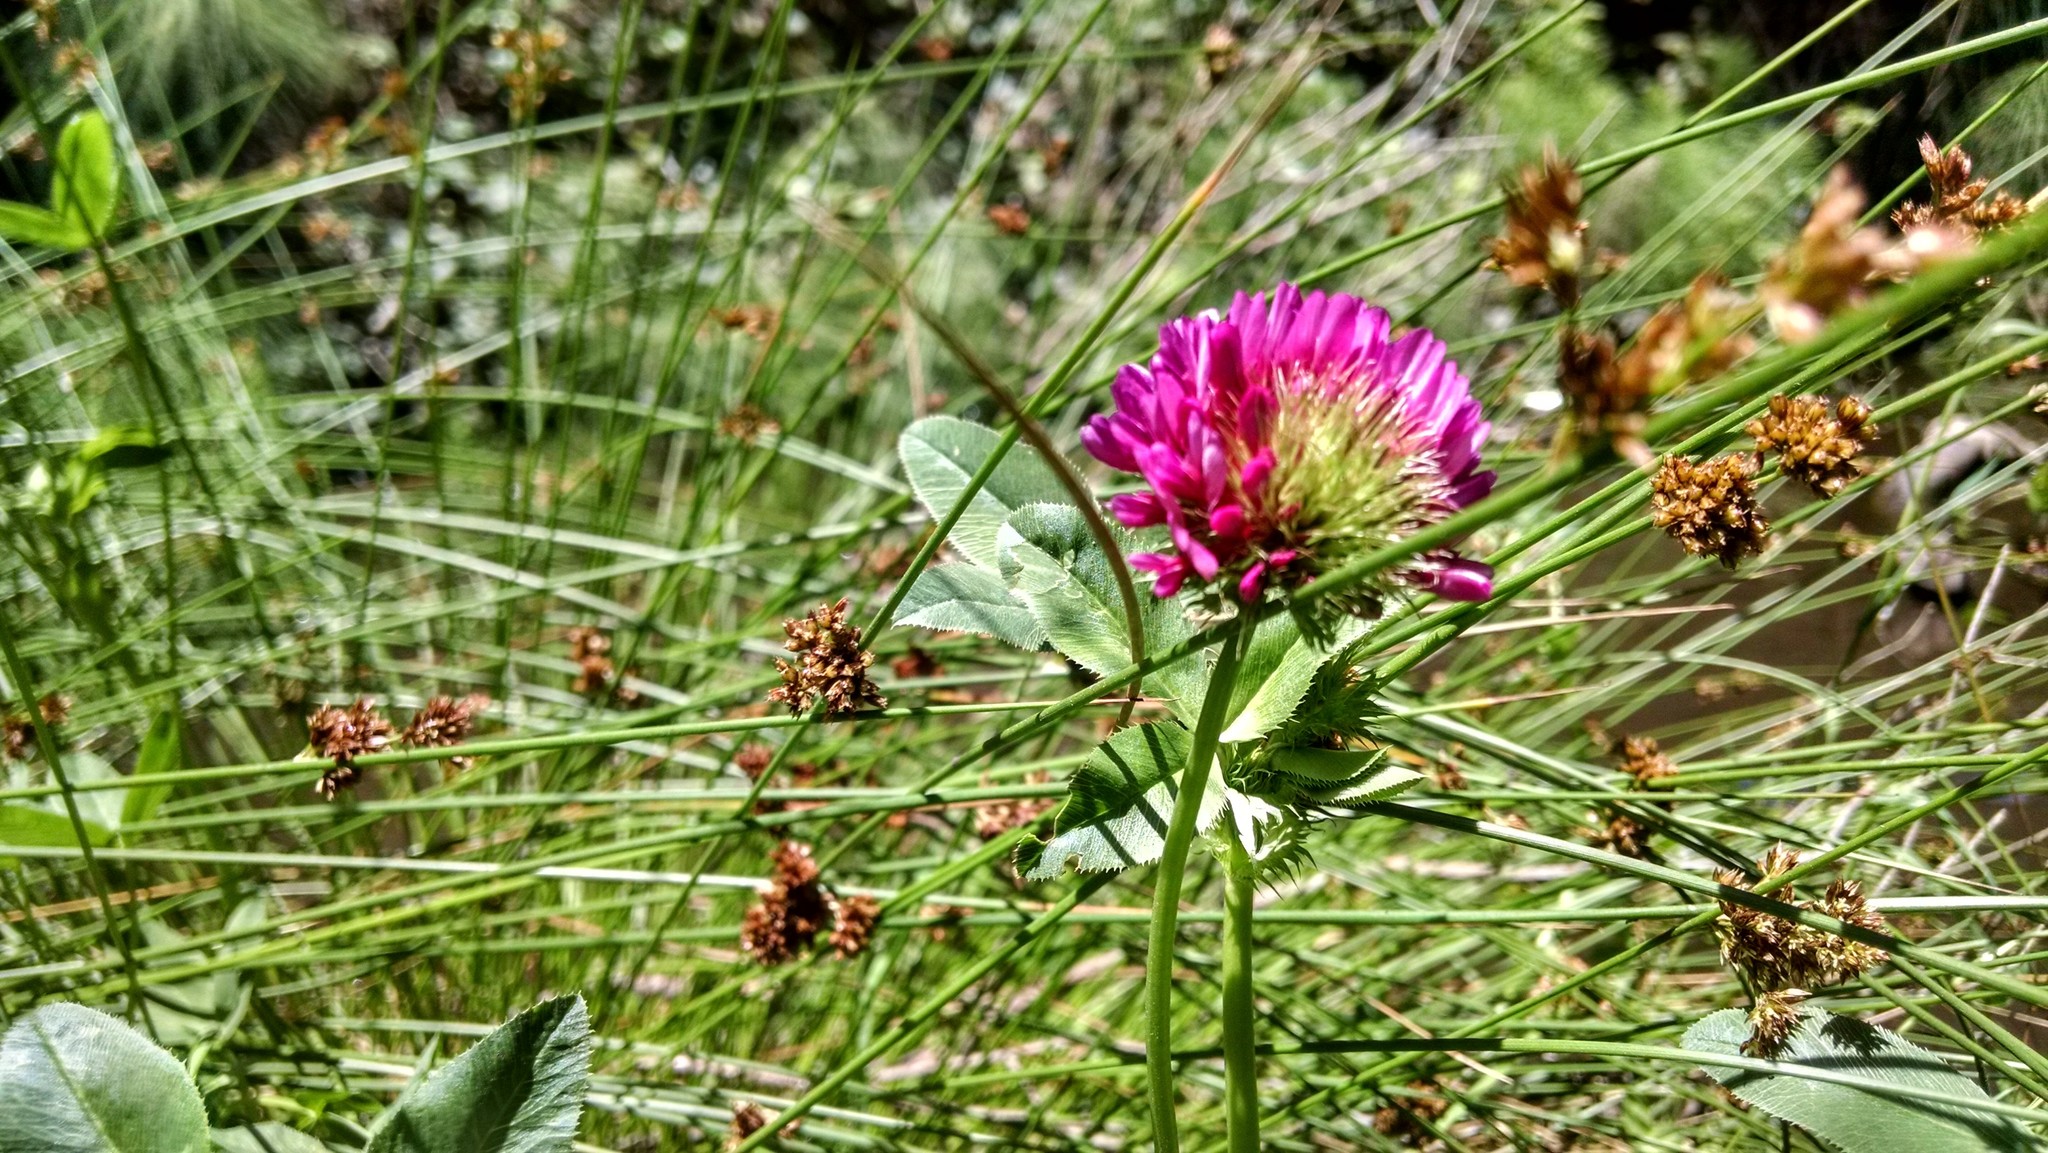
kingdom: Plantae
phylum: Tracheophyta
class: Magnoliopsida
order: Fabales
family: Fabaceae
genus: Trifolium
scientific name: Trifolium wormskioldii
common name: Springbank clover
